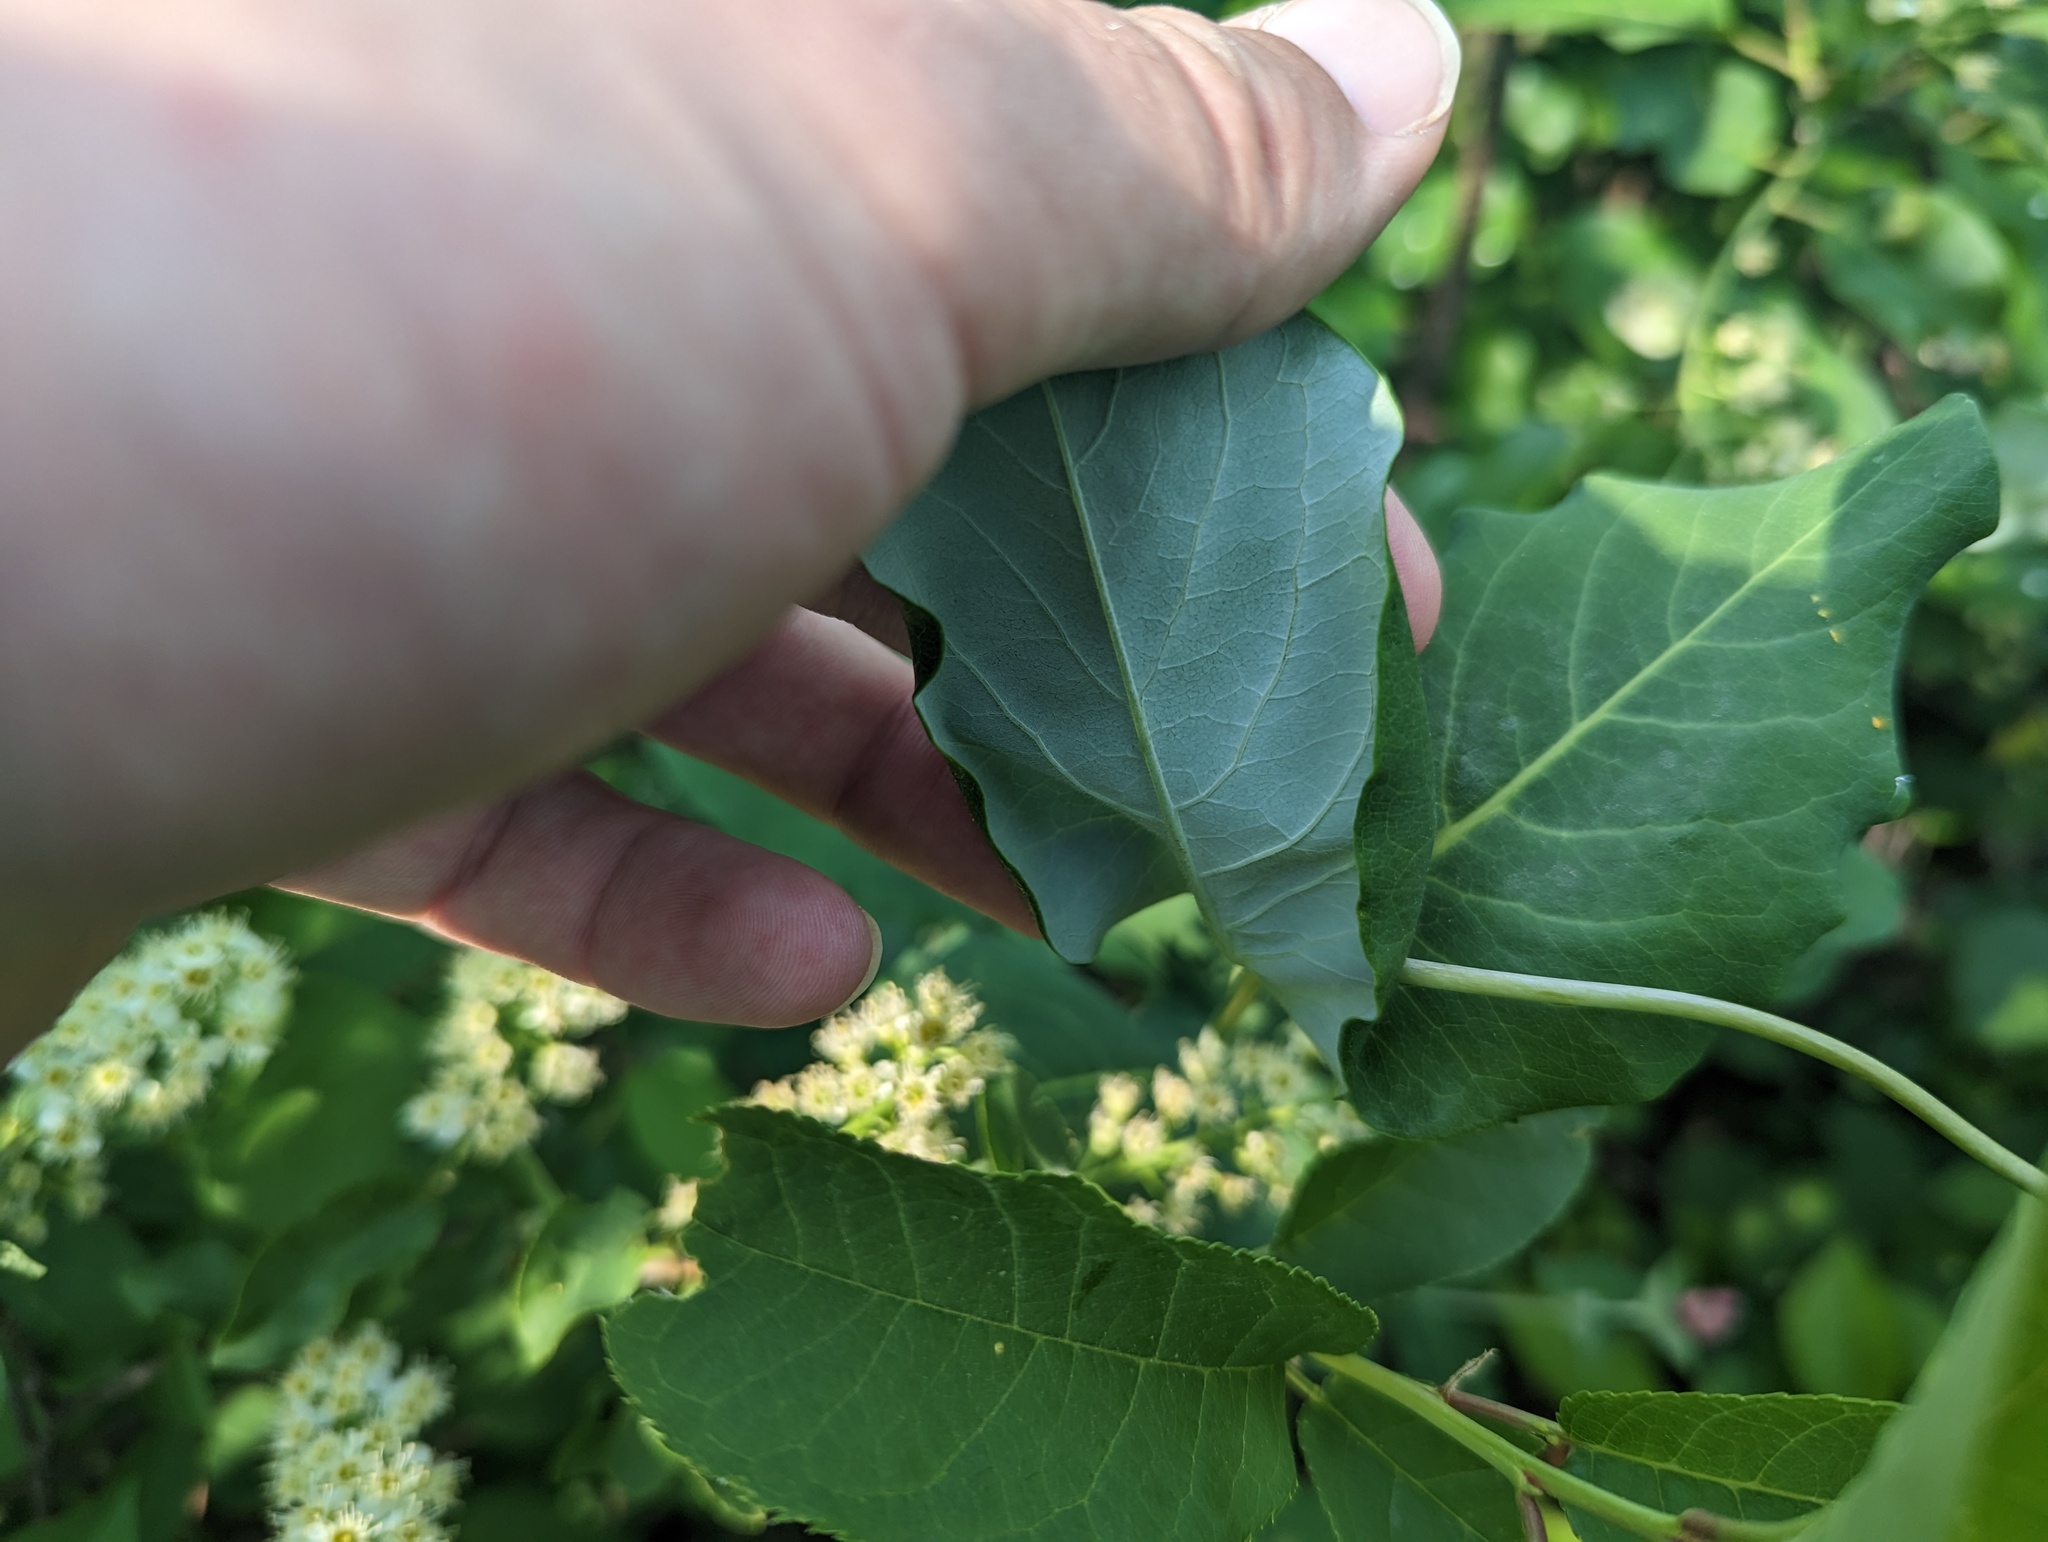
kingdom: Plantae
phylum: Tracheophyta
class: Magnoliopsida
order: Dipsacales
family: Caprifoliaceae
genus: Lonicera
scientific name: Lonicera dioica
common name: Limber honeysuckle
